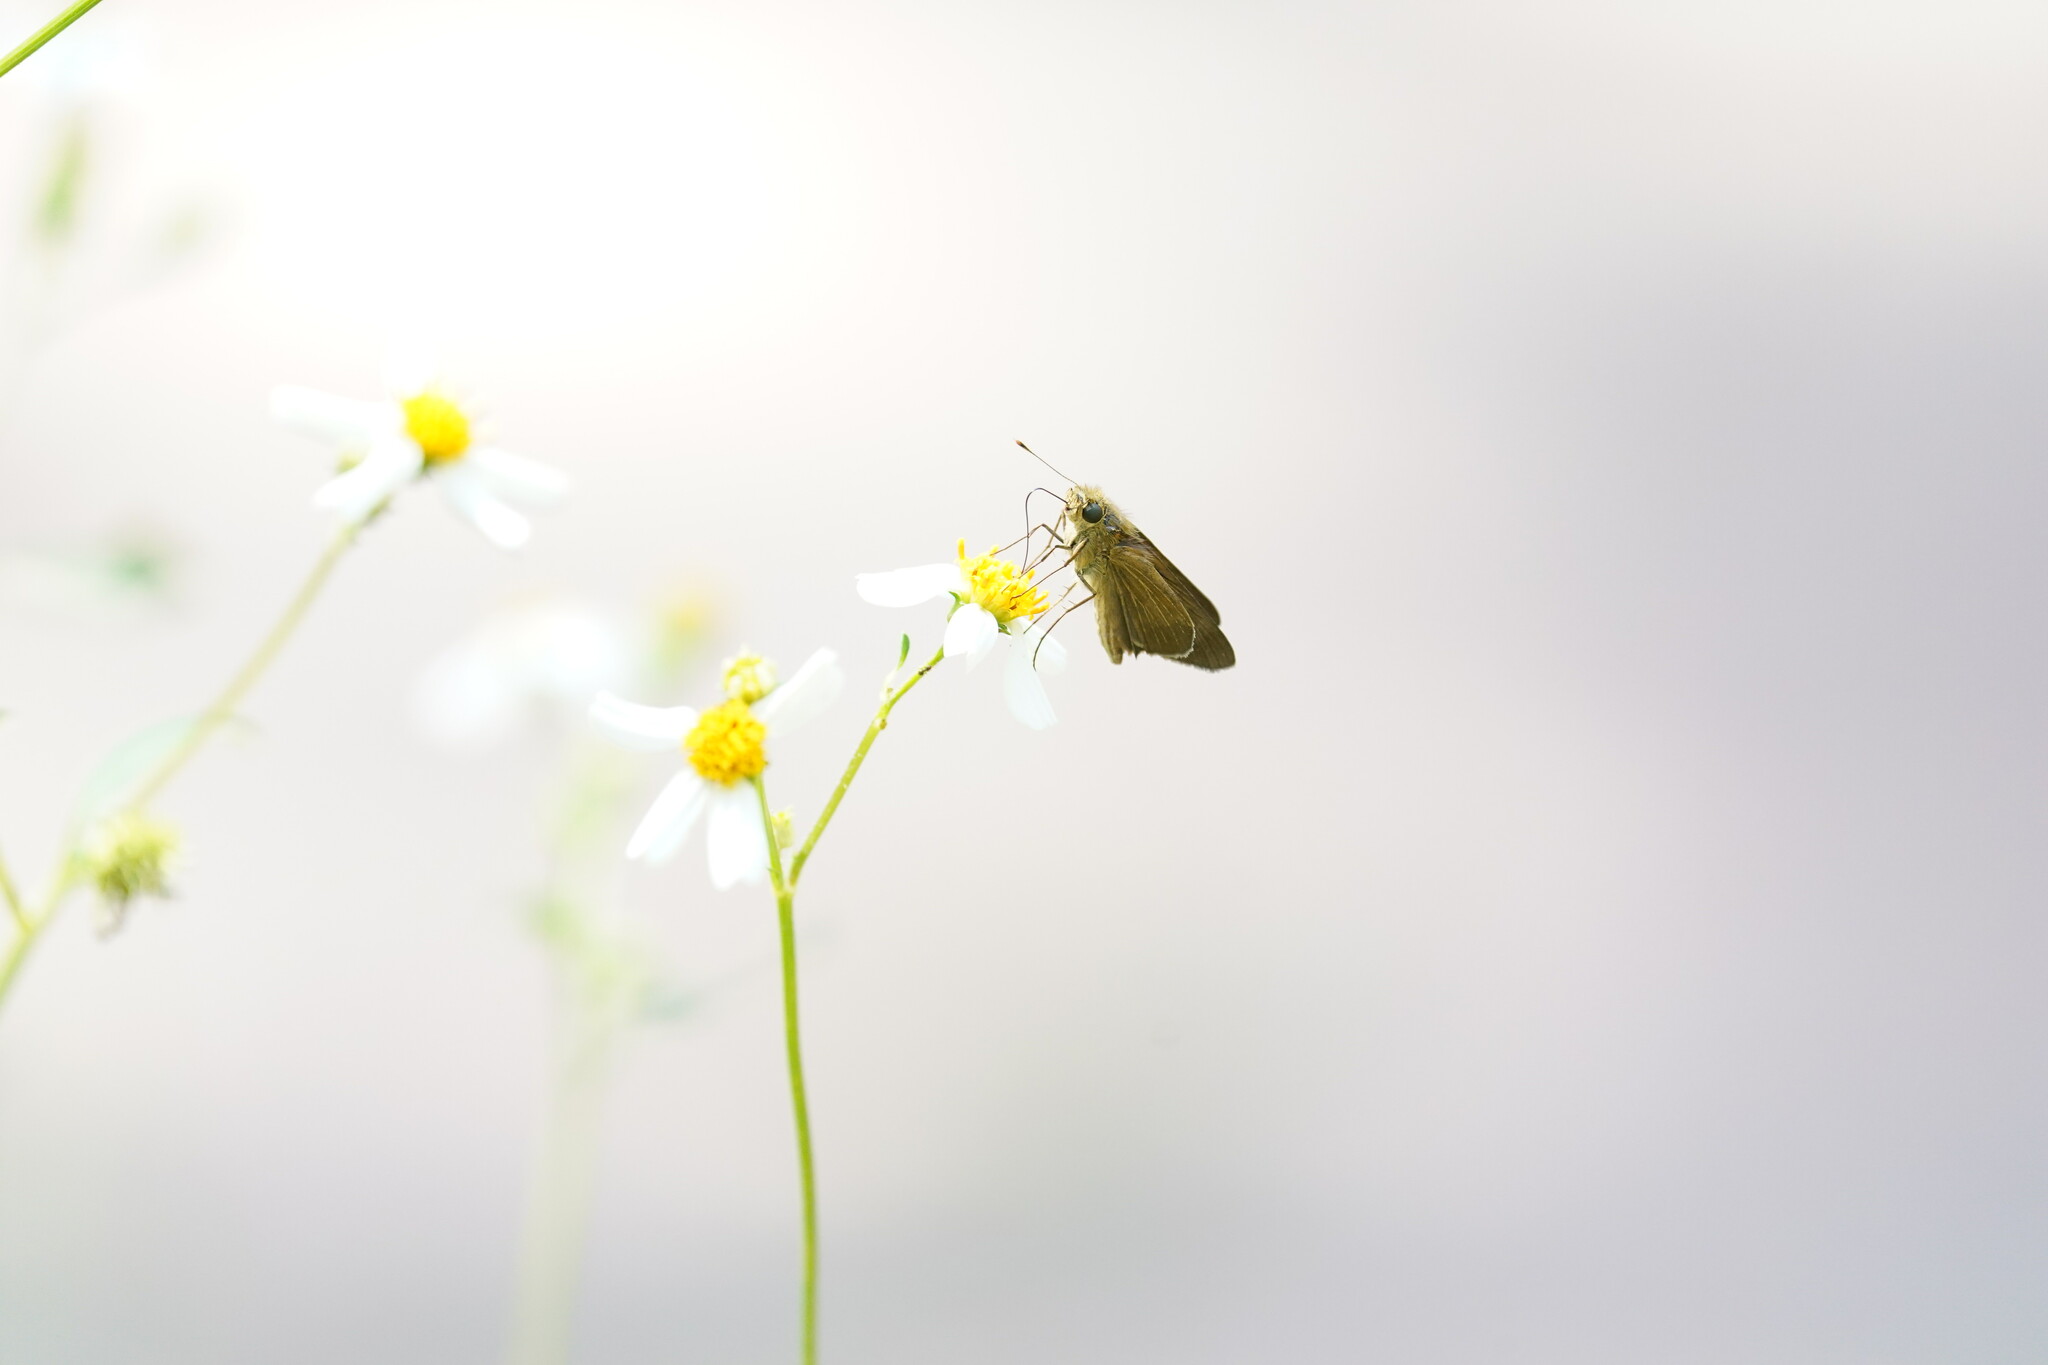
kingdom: Animalia
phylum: Arthropoda
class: Insecta
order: Lepidoptera
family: Hesperiidae
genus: Panoquina
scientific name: Panoquina ocola
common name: Ocola skipper
